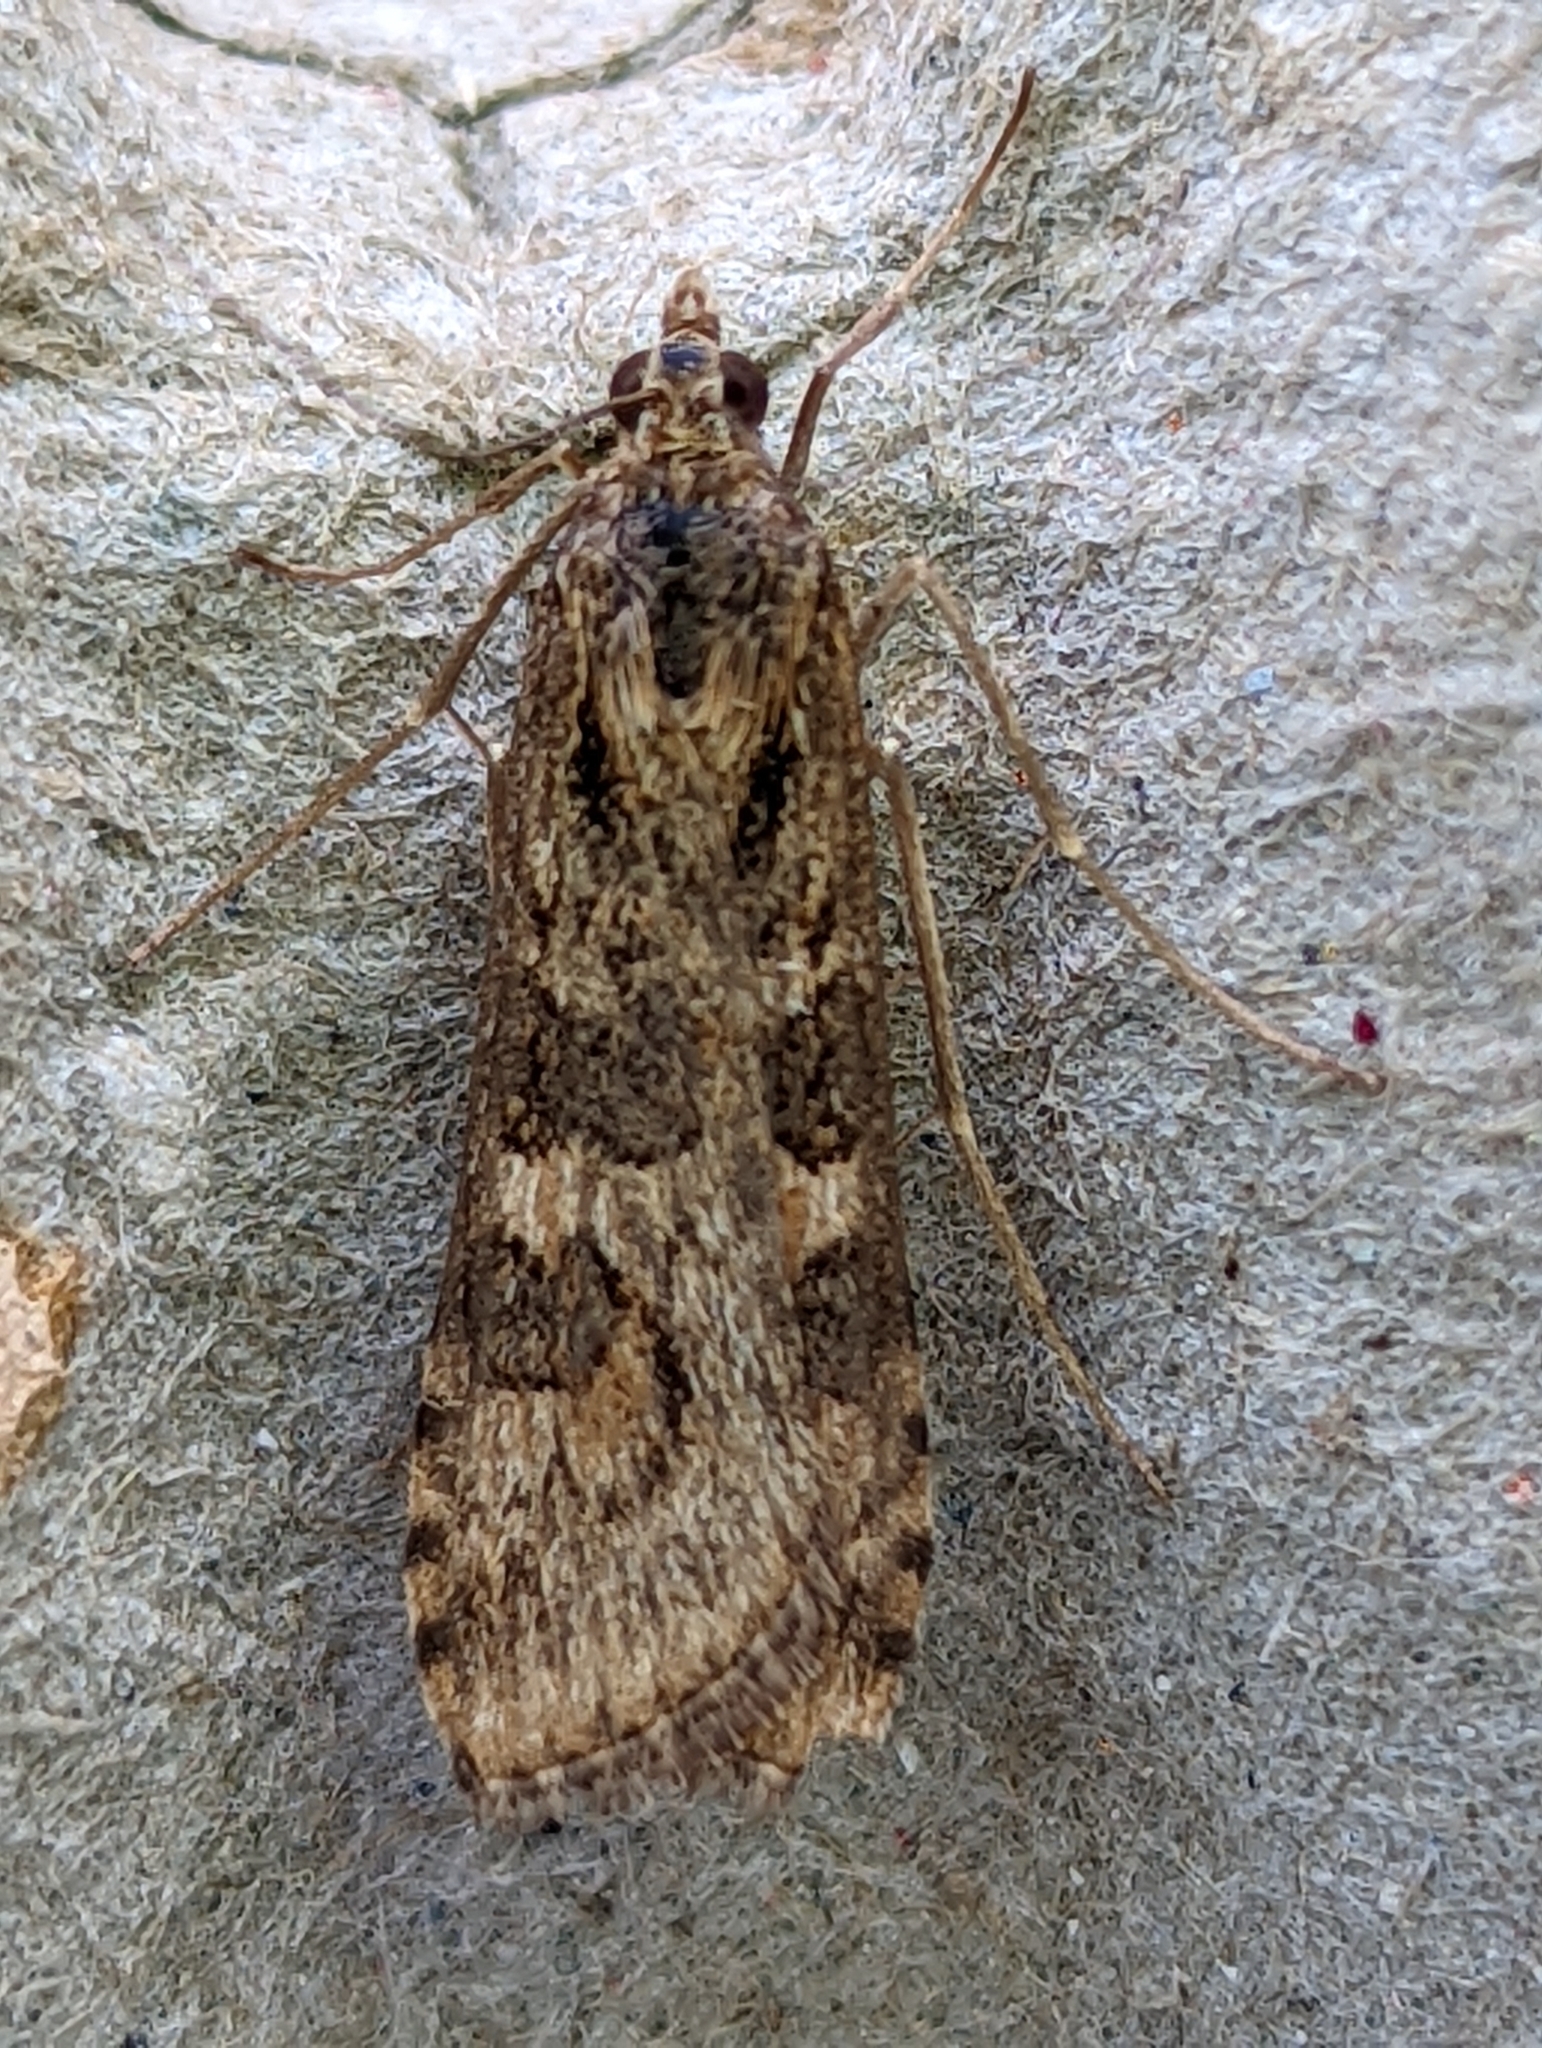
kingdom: Animalia
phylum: Arthropoda
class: Insecta
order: Lepidoptera
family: Crambidae
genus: Nomophila
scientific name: Nomophila noctuella
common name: Rush veneer
